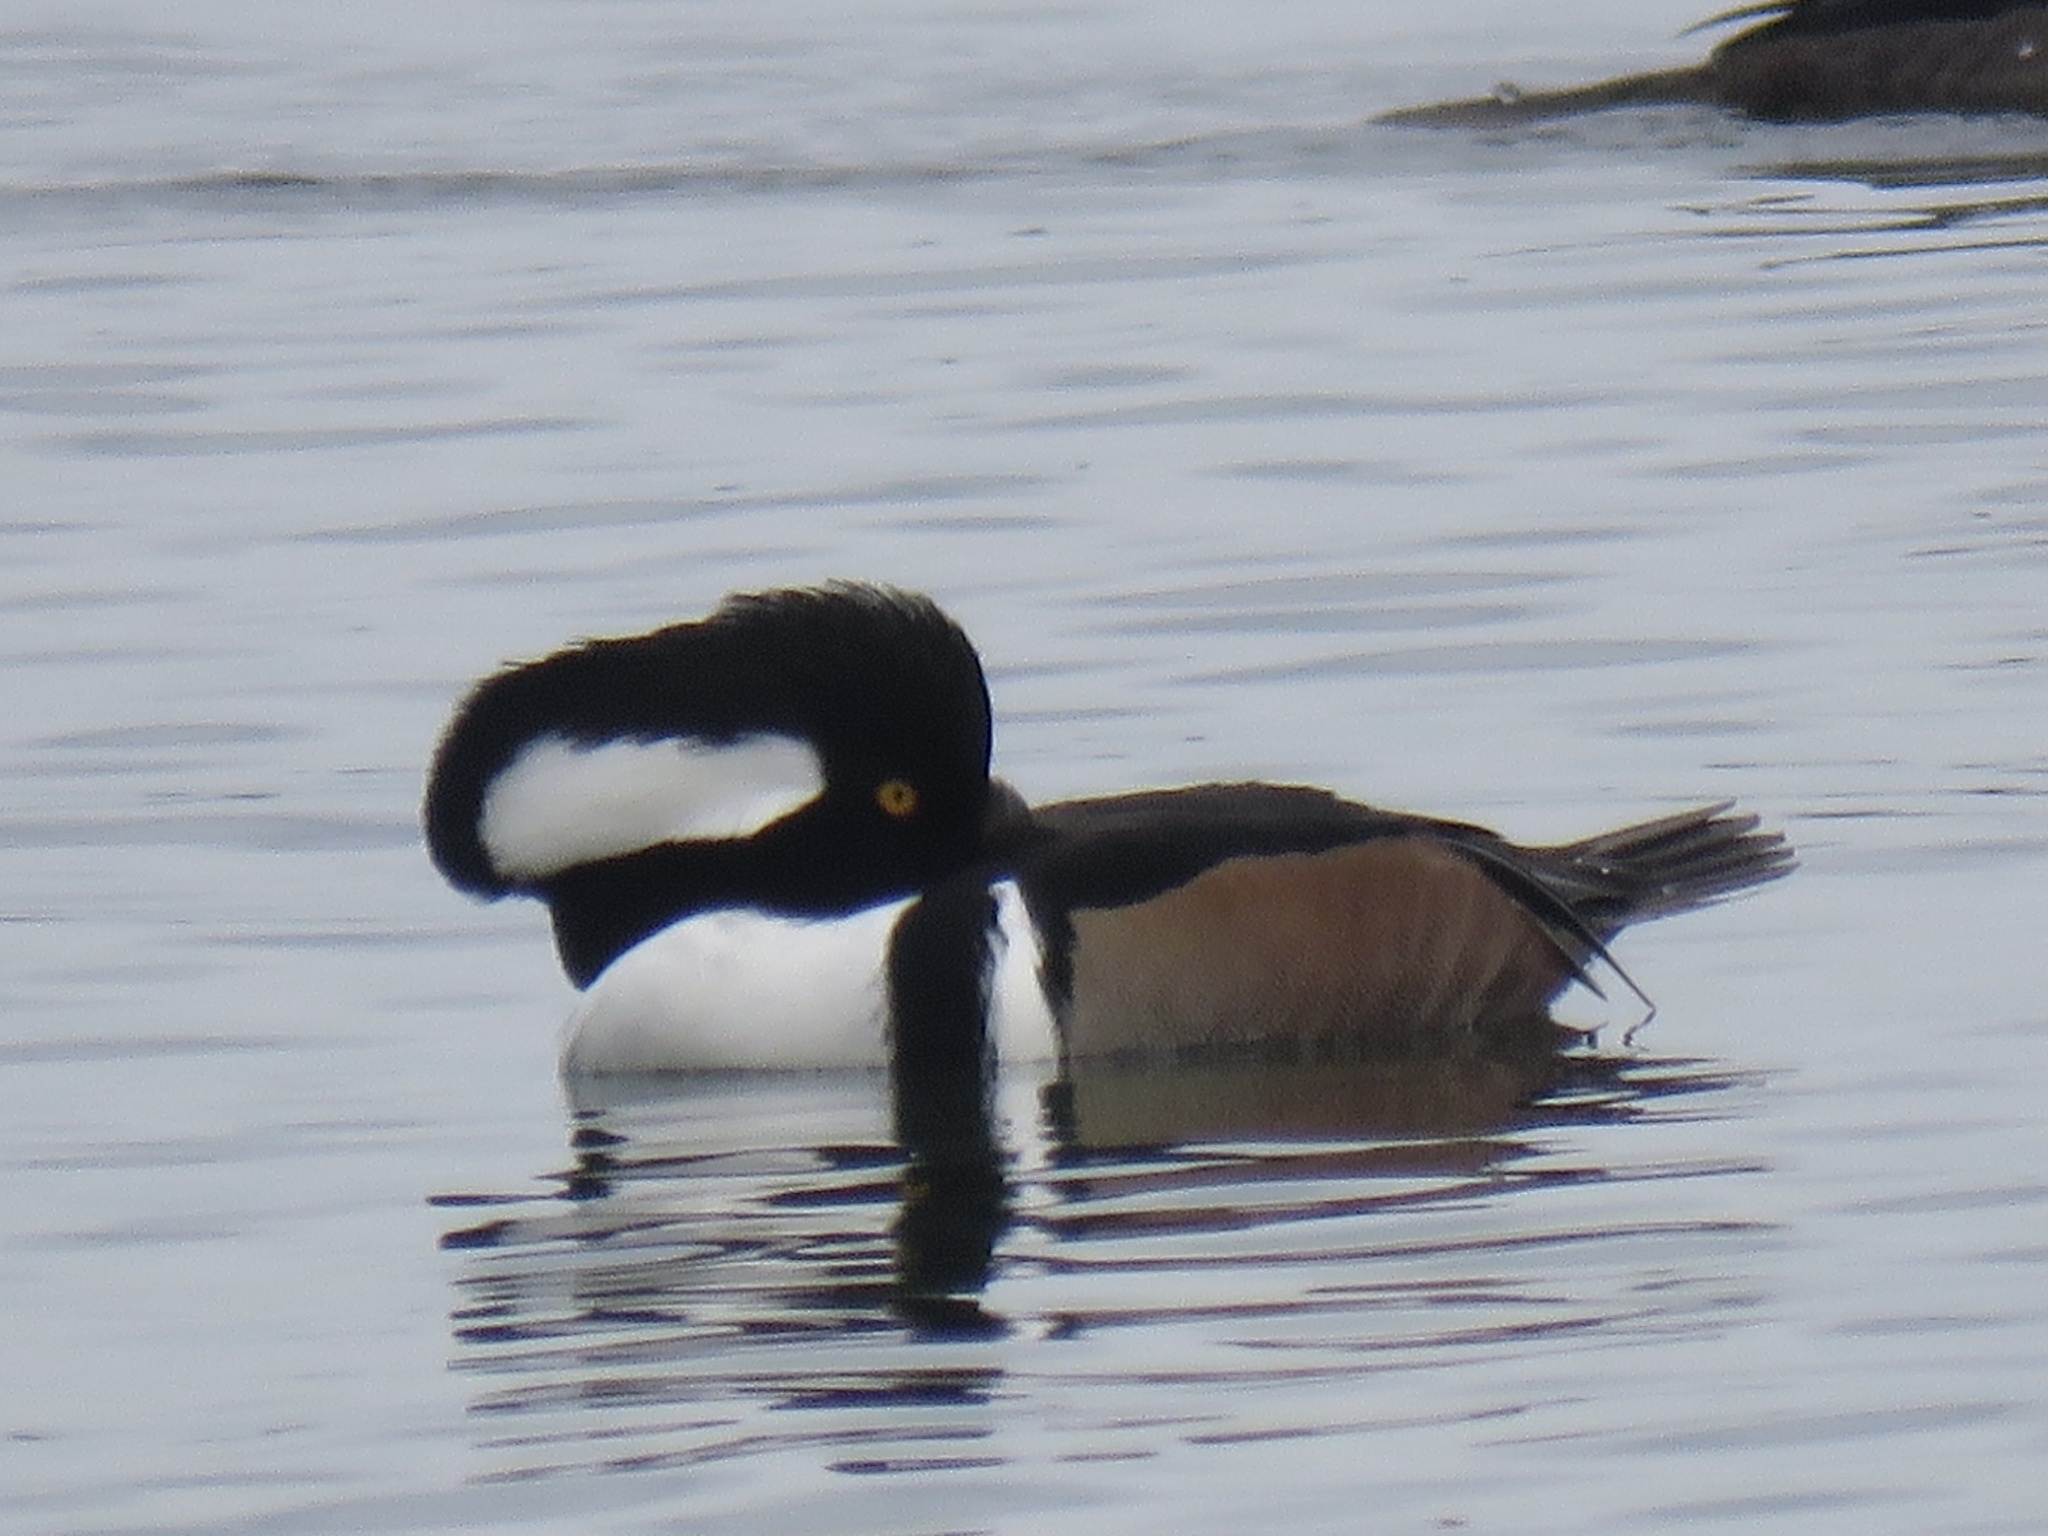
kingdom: Animalia
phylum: Chordata
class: Aves
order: Anseriformes
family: Anatidae
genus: Lophodytes
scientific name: Lophodytes cucullatus
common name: Hooded merganser
